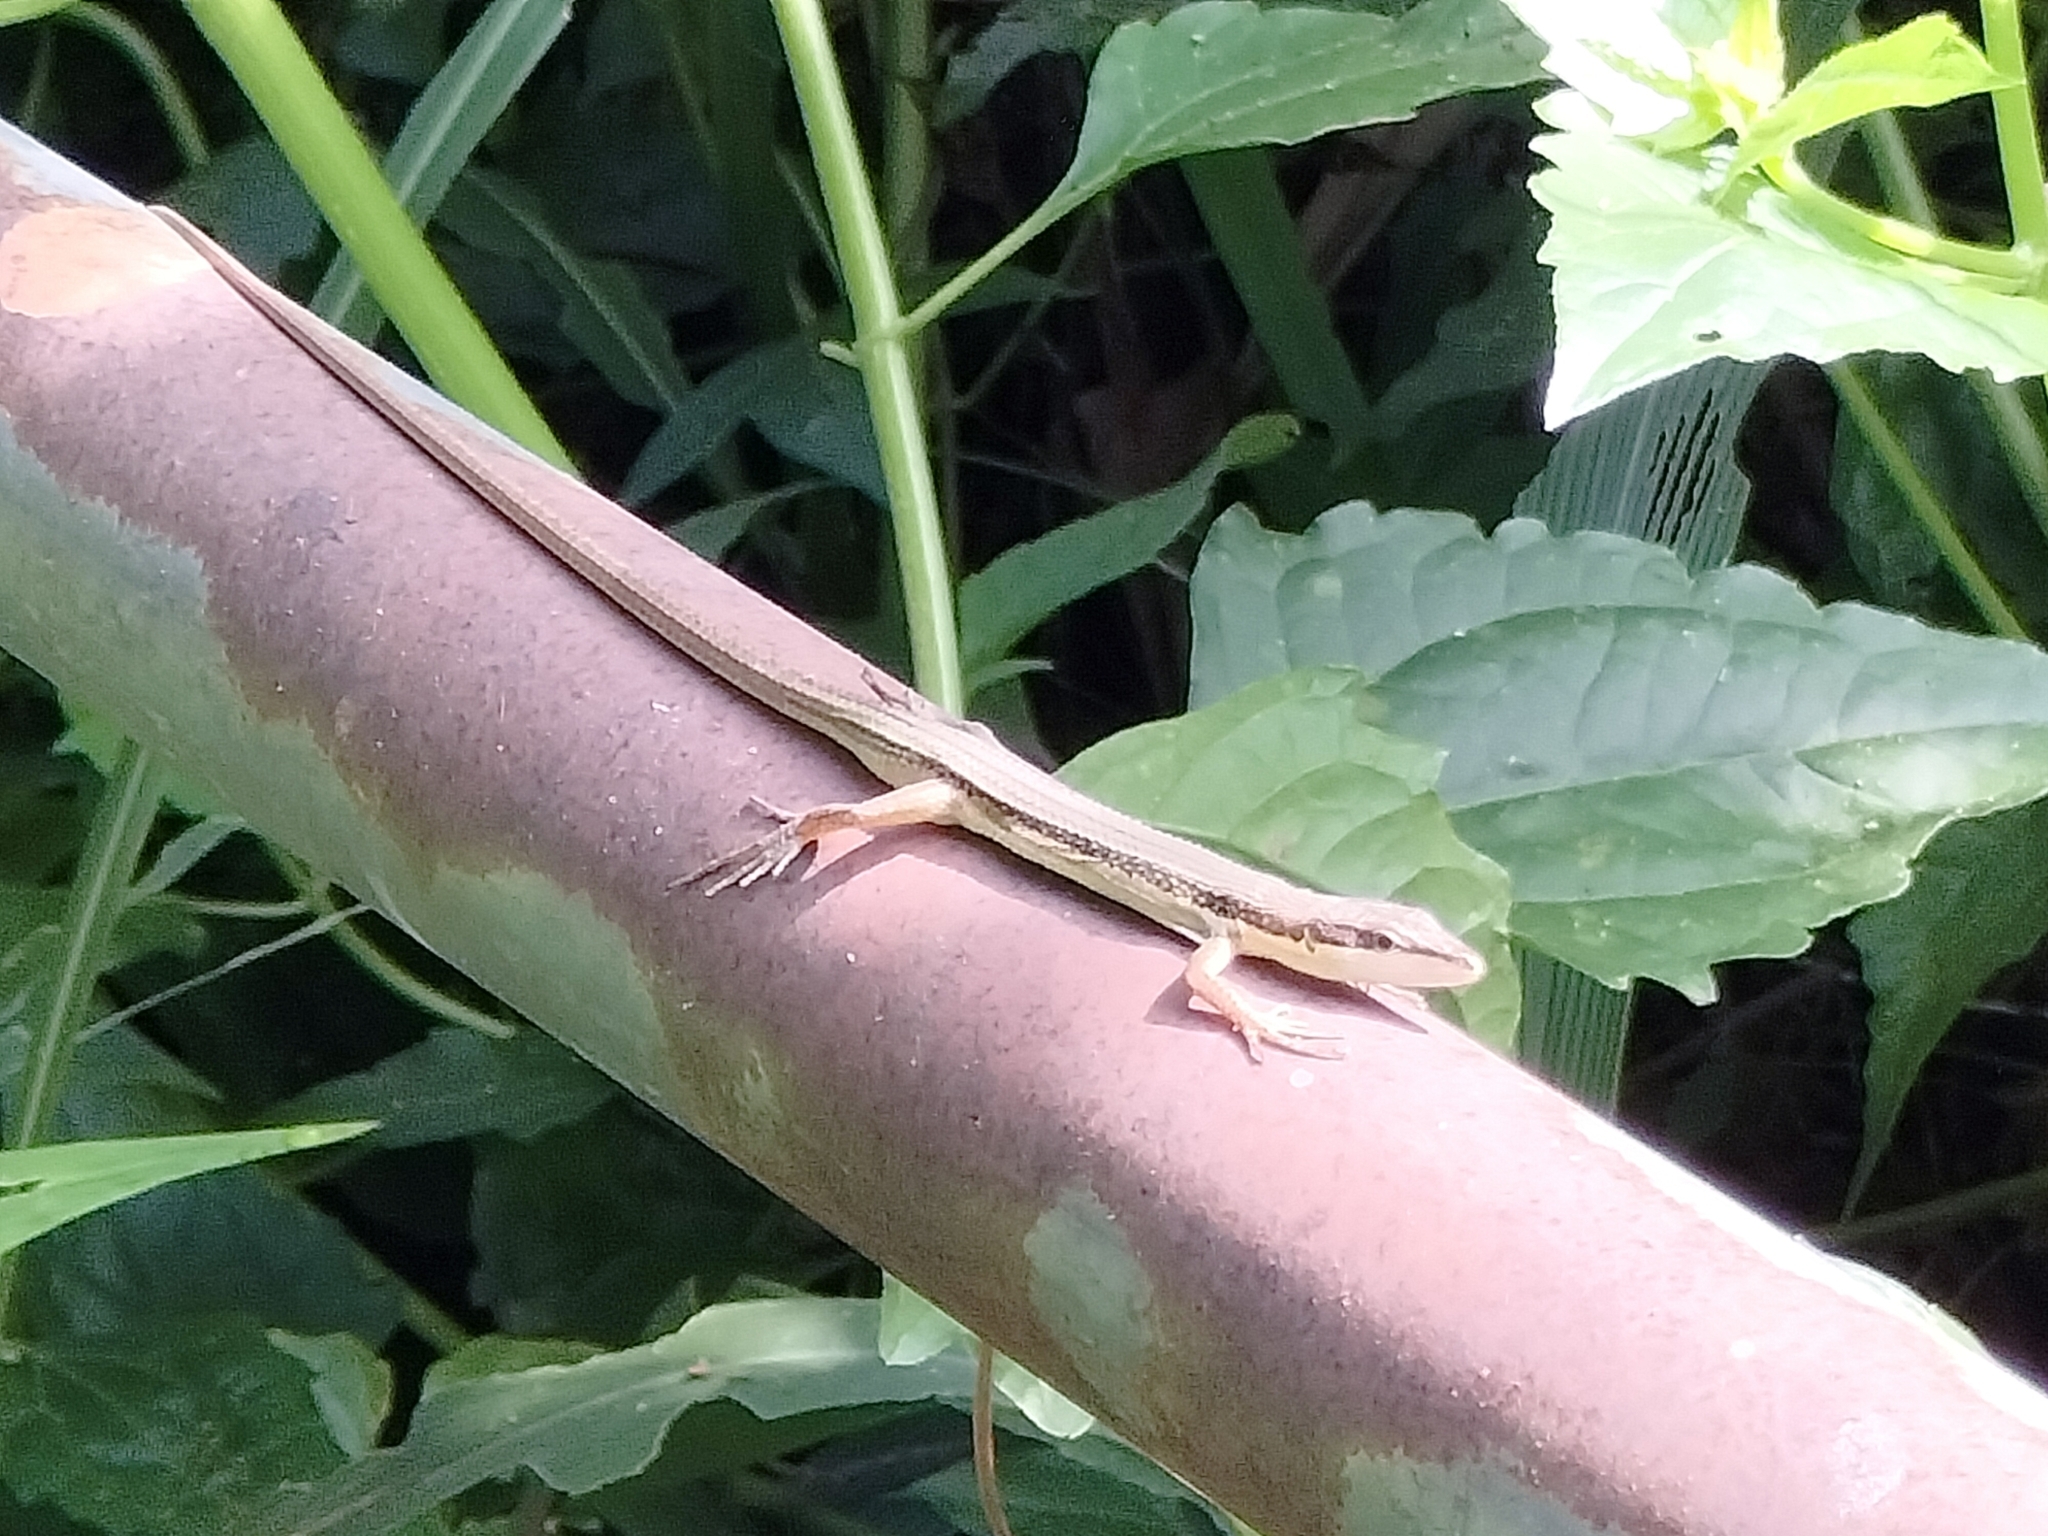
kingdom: Animalia
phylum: Chordata
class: Squamata
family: Lacertidae
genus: Takydromus
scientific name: Takydromus kuehnei
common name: Kuhne’s grass lizard
